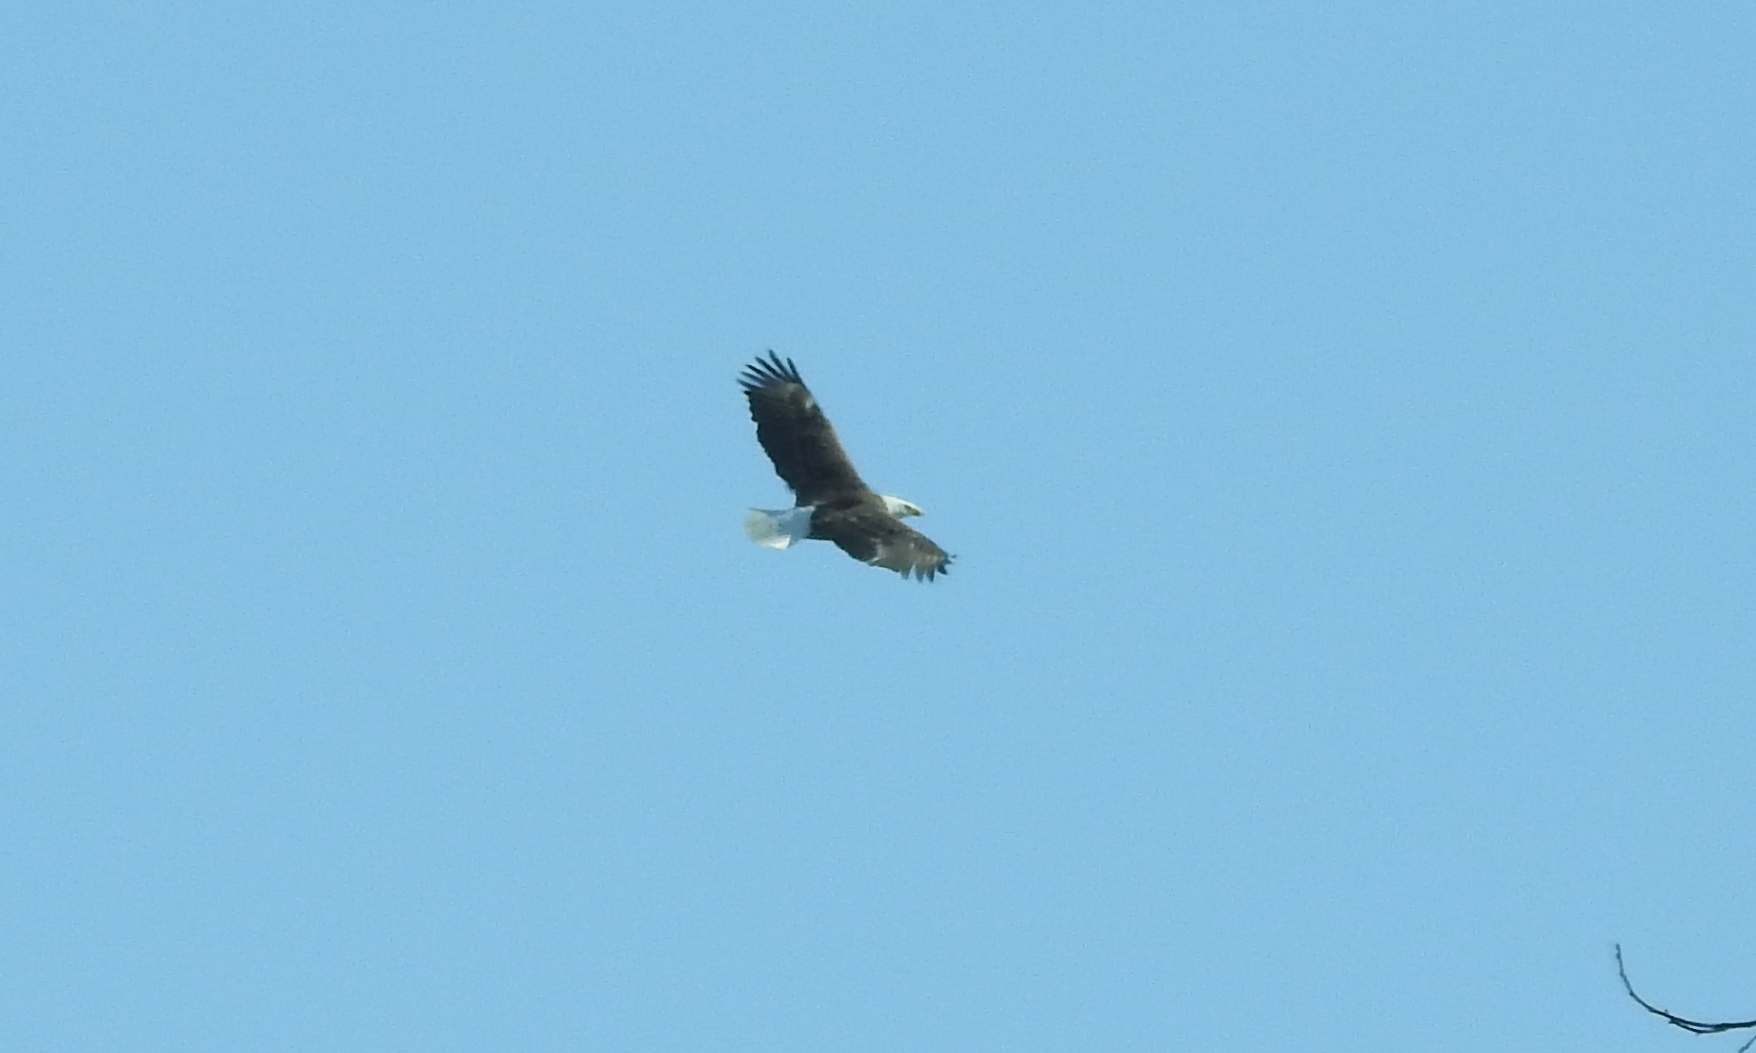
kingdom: Animalia
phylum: Chordata
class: Aves
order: Accipitriformes
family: Accipitridae
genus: Haliaeetus
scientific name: Haliaeetus leucocephalus
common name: Bald eagle
